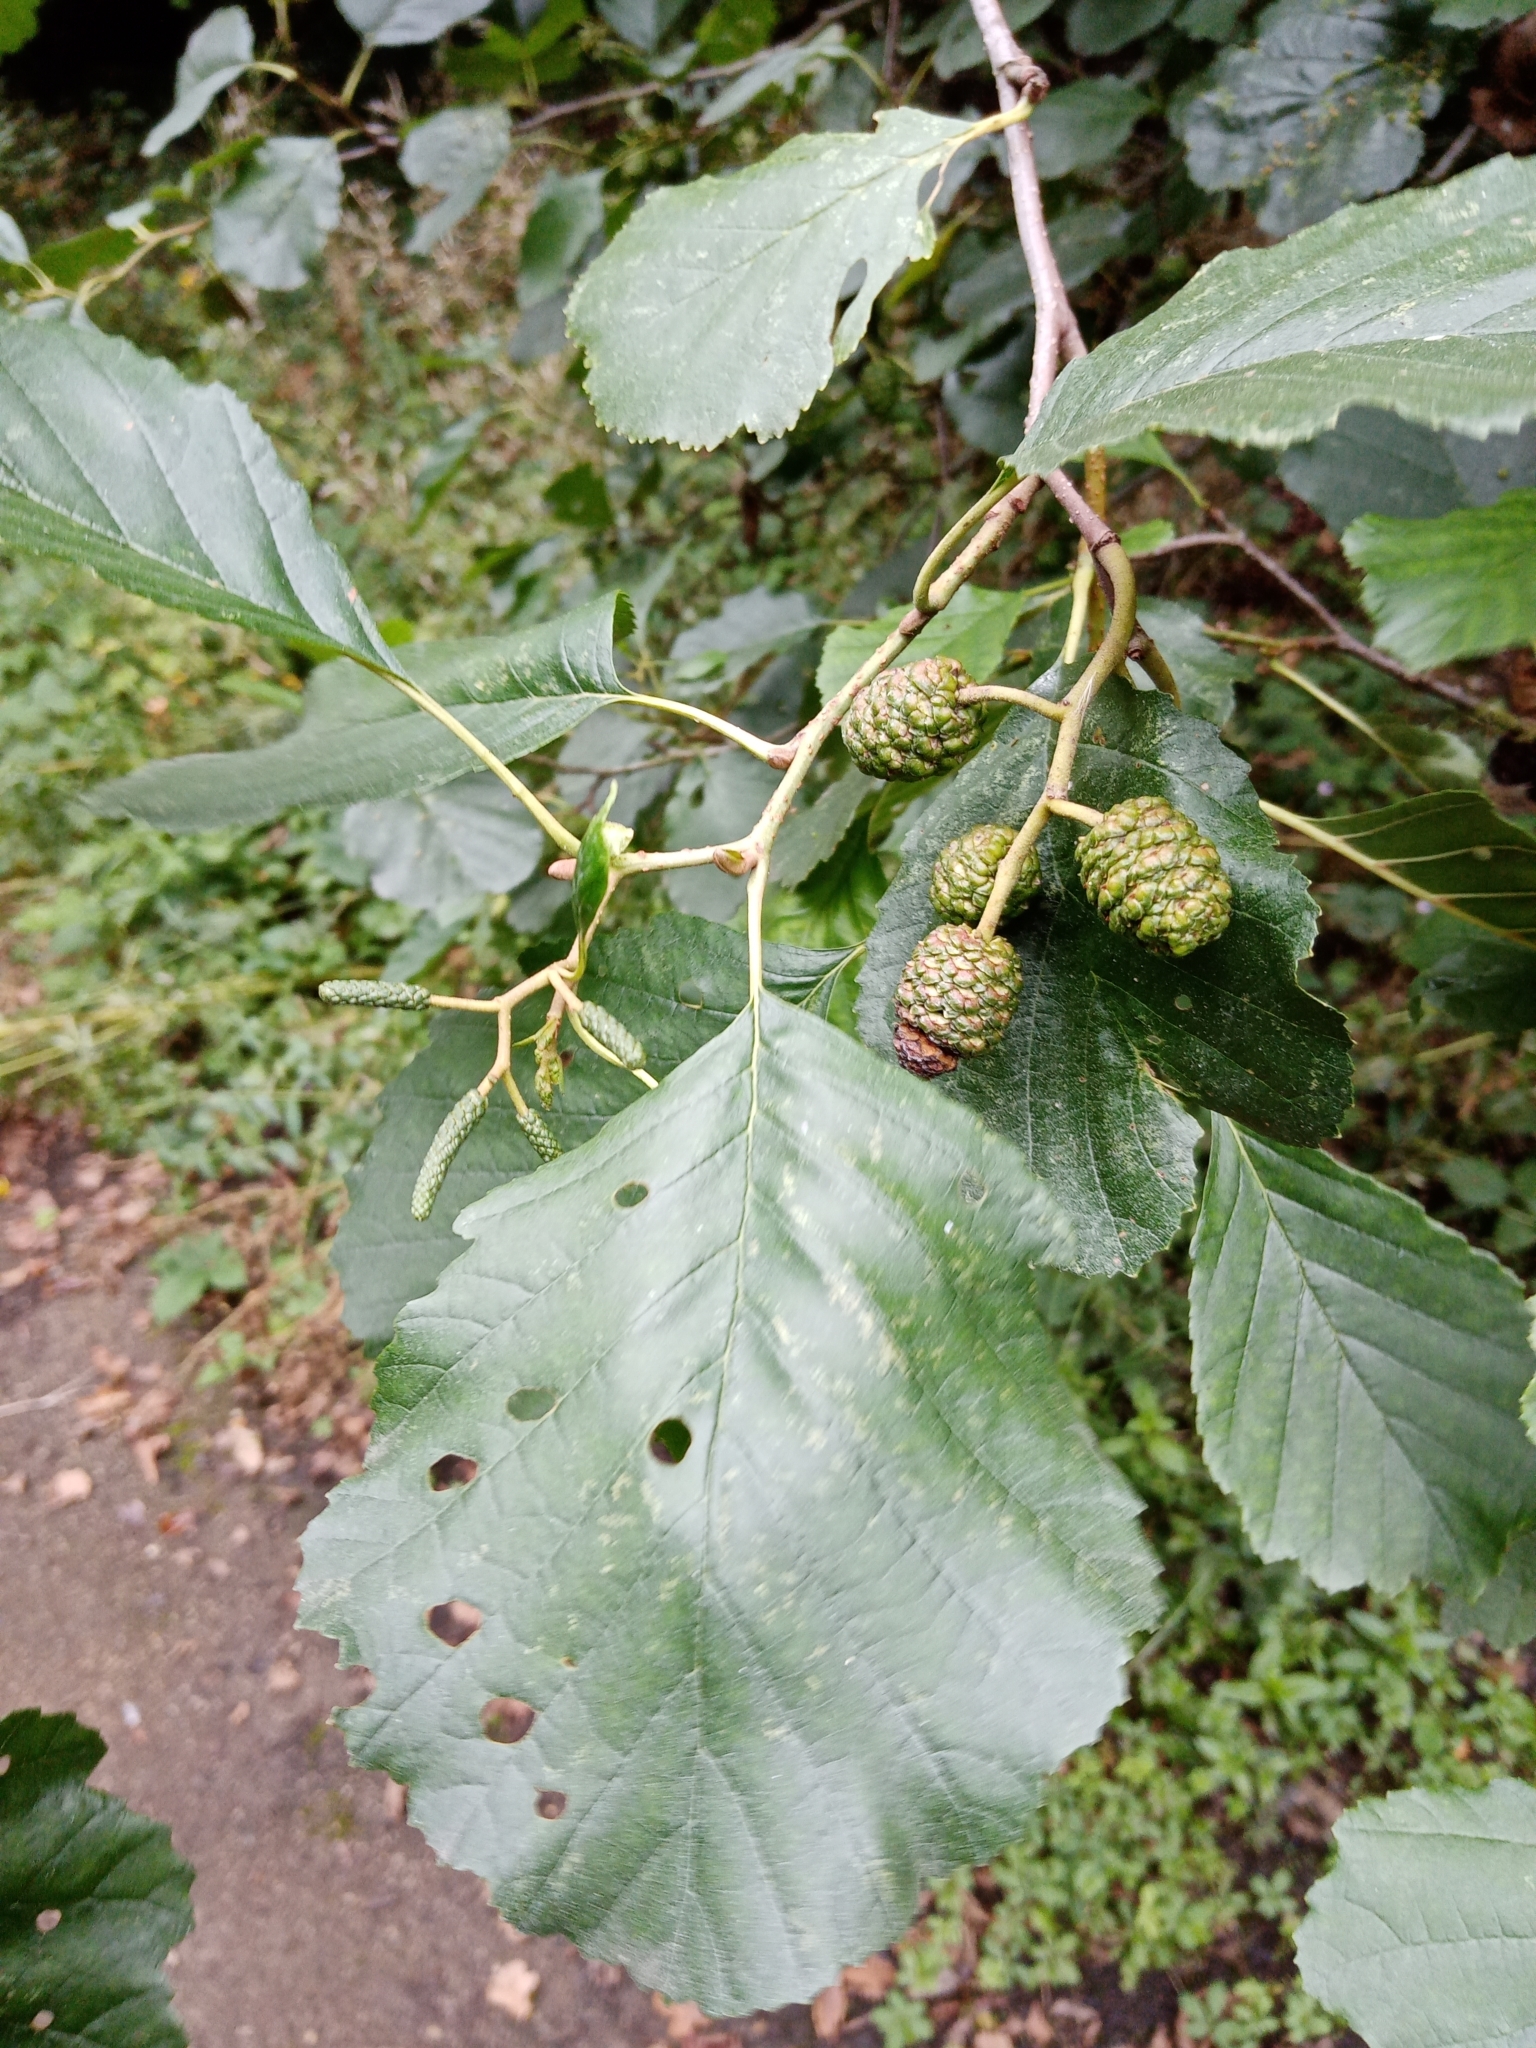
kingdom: Plantae
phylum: Tracheophyta
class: Magnoliopsida
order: Fagales
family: Betulaceae
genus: Alnus
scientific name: Alnus glutinosa
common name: Black alder
